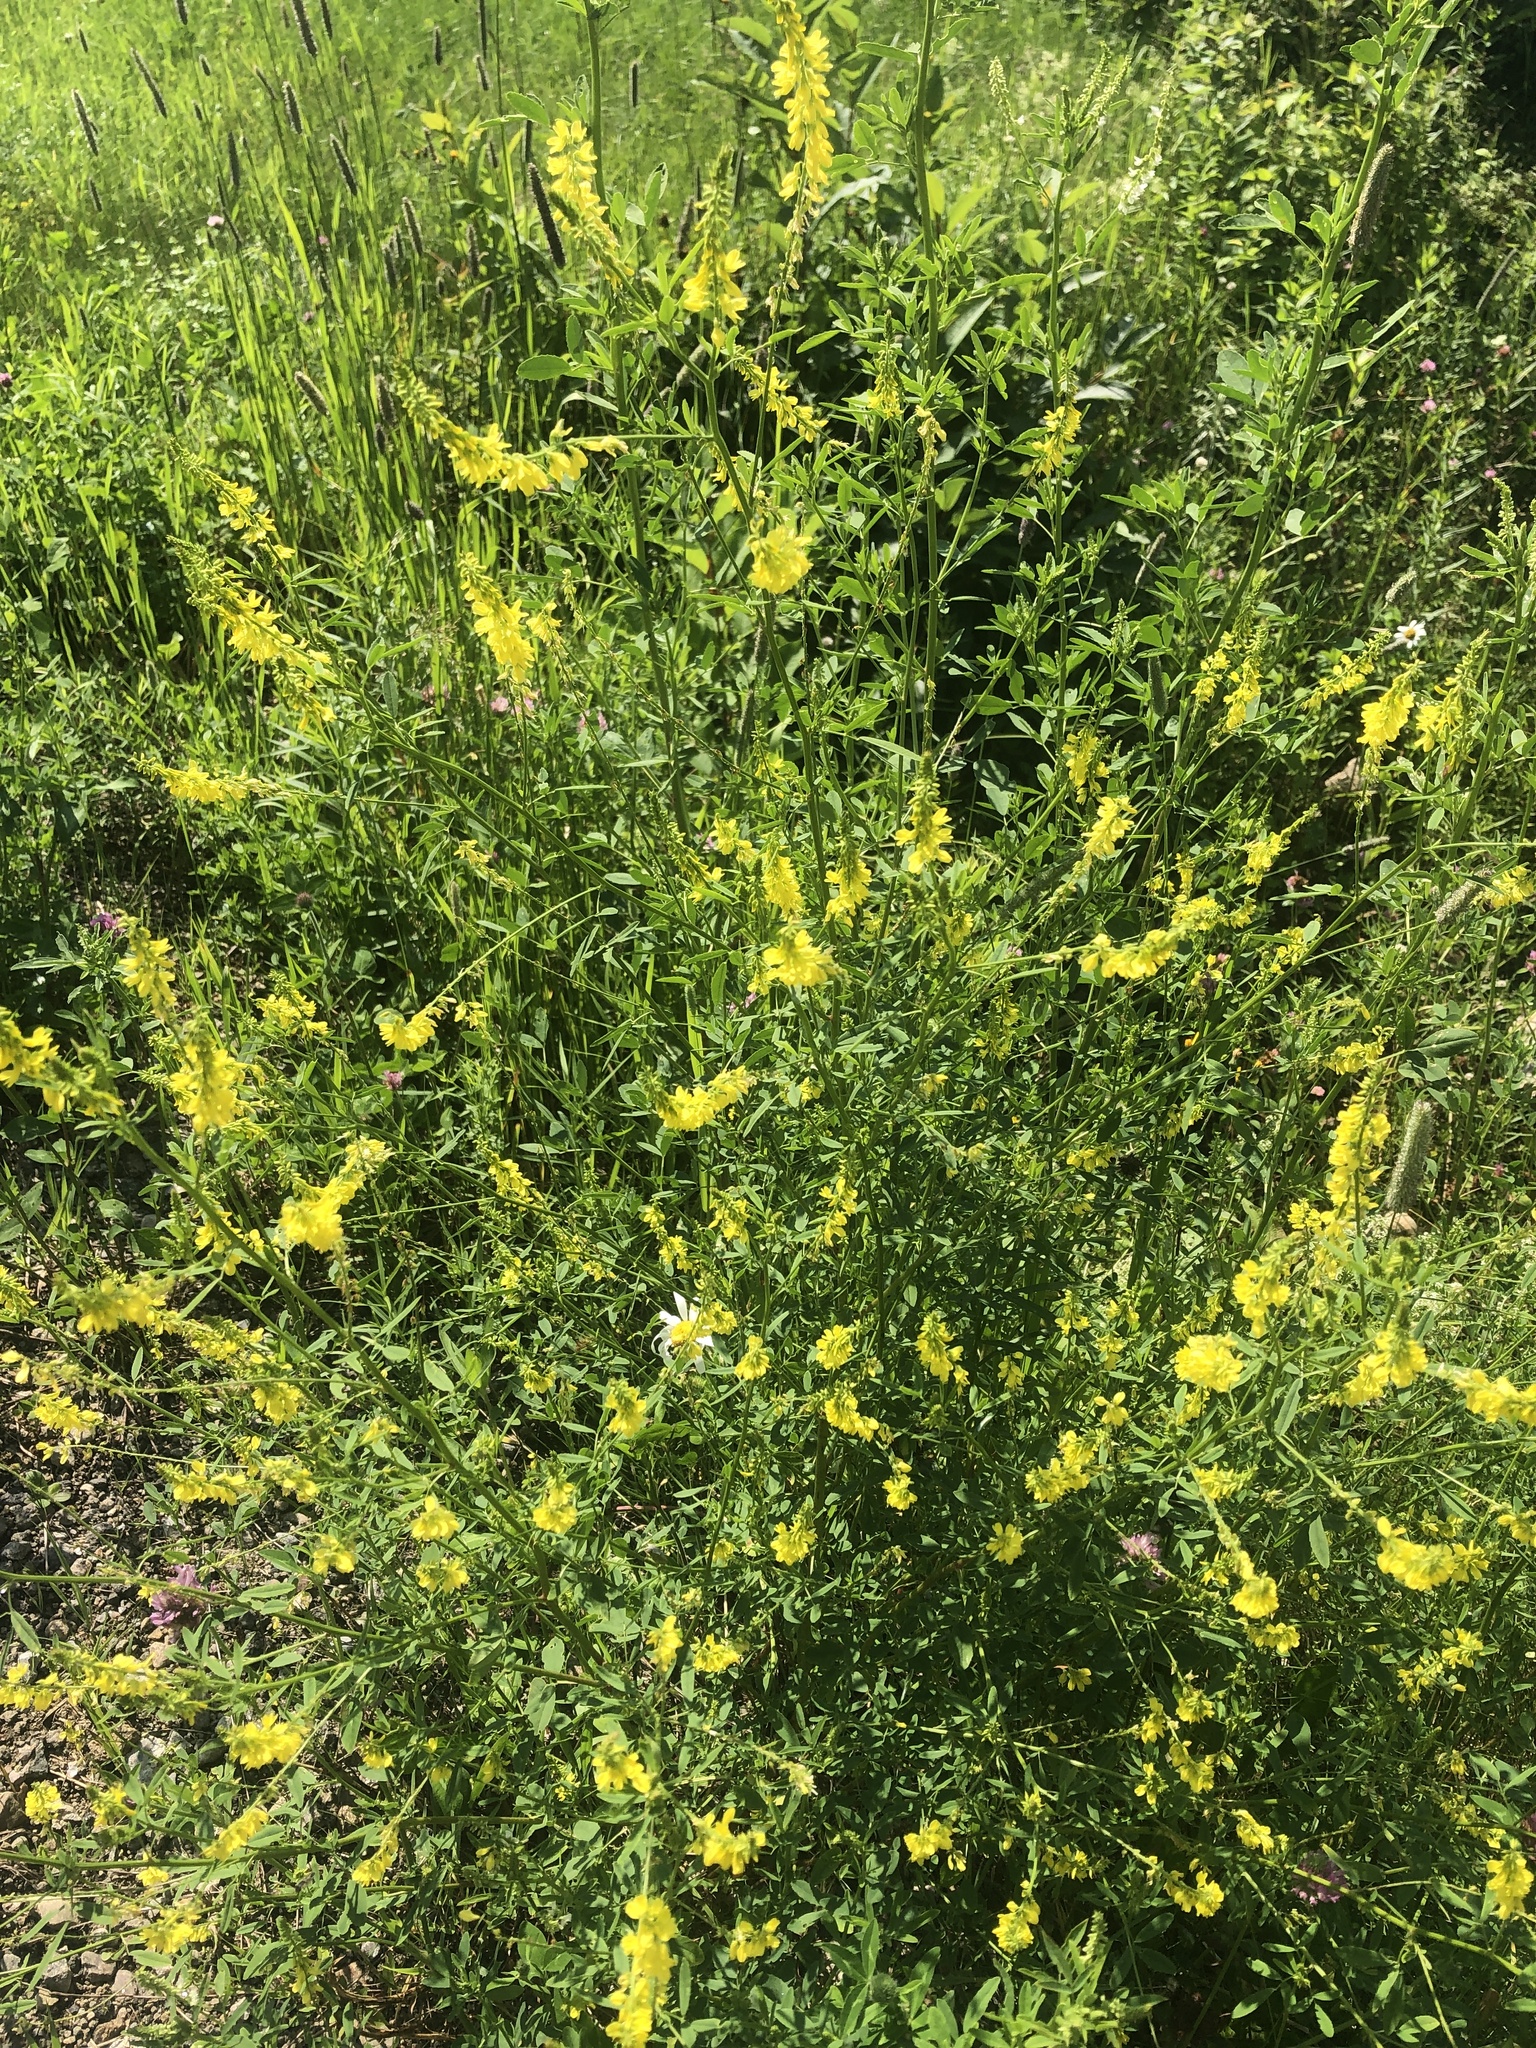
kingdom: Plantae
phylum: Tracheophyta
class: Magnoliopsida
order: Fabales
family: Fabaceae
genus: Melilotus
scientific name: Melilotus officinalis
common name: Sweetclover
